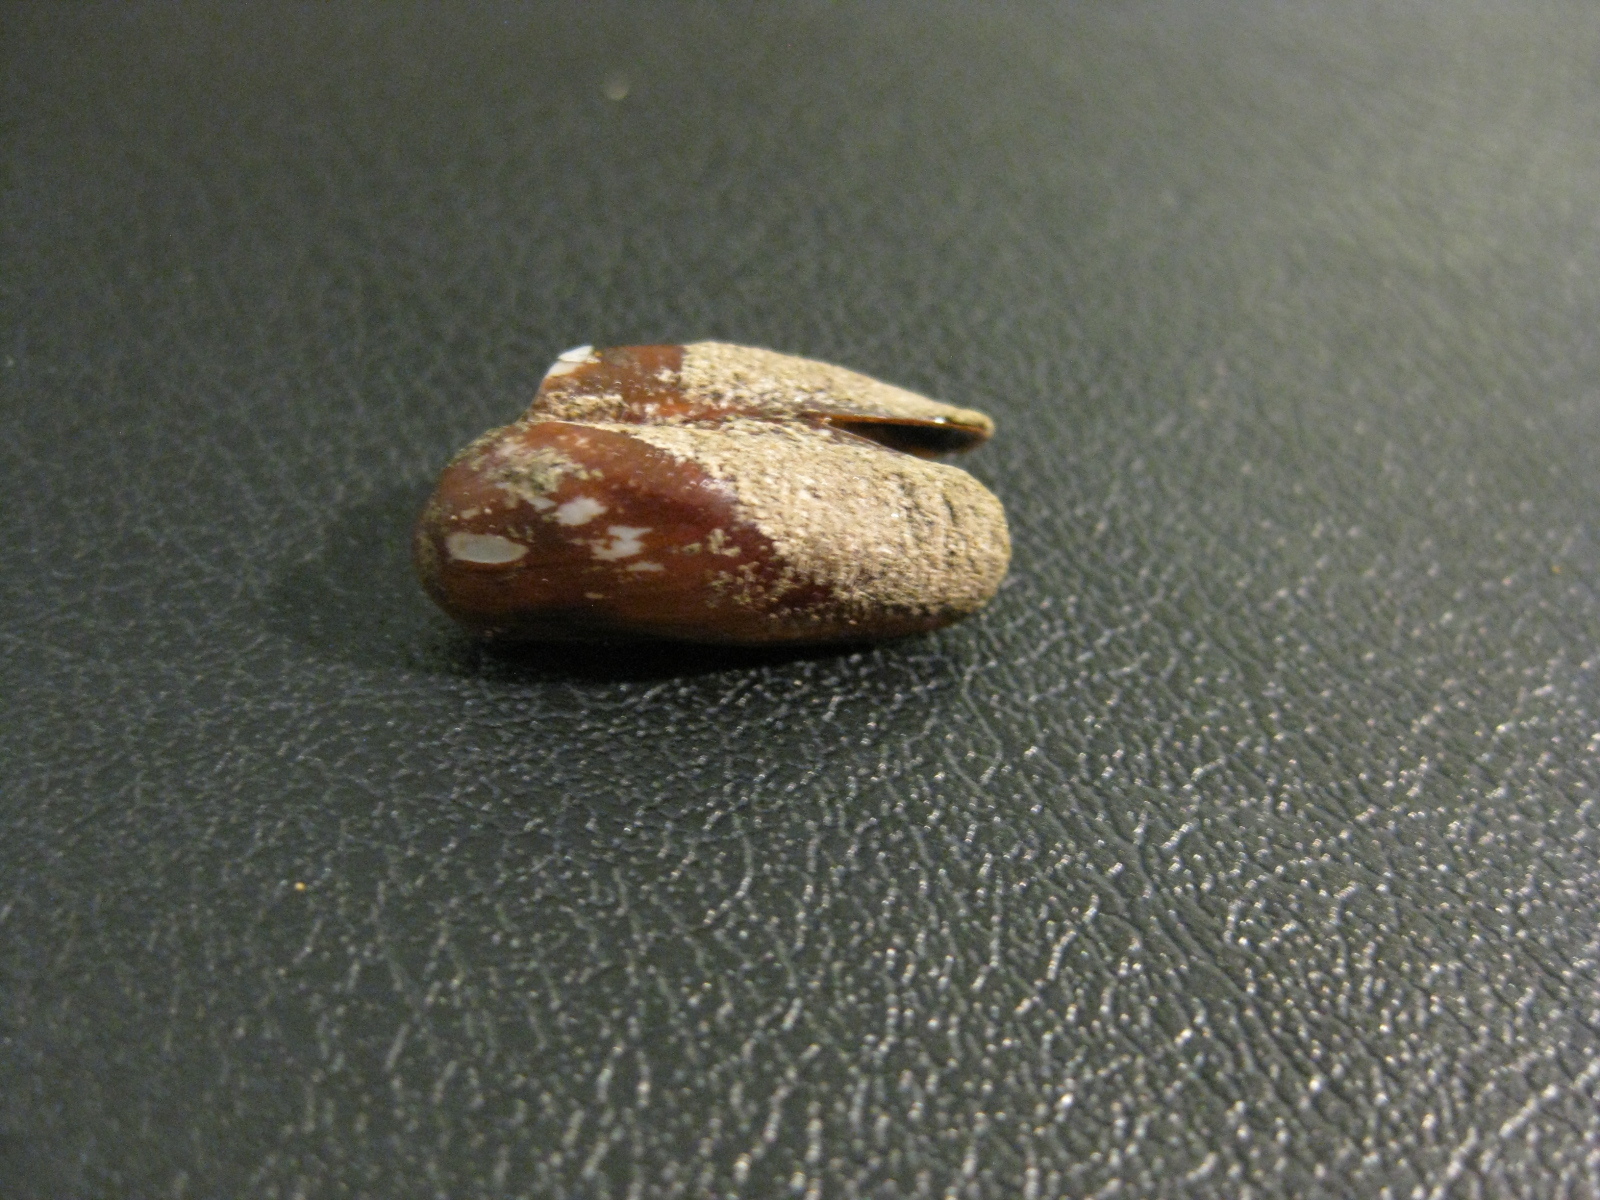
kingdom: Animalia
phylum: Mollusca
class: Bivalvia
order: Mytilida
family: Mytilidae
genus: Zelithophaga
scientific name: Zelithophaga truncata
